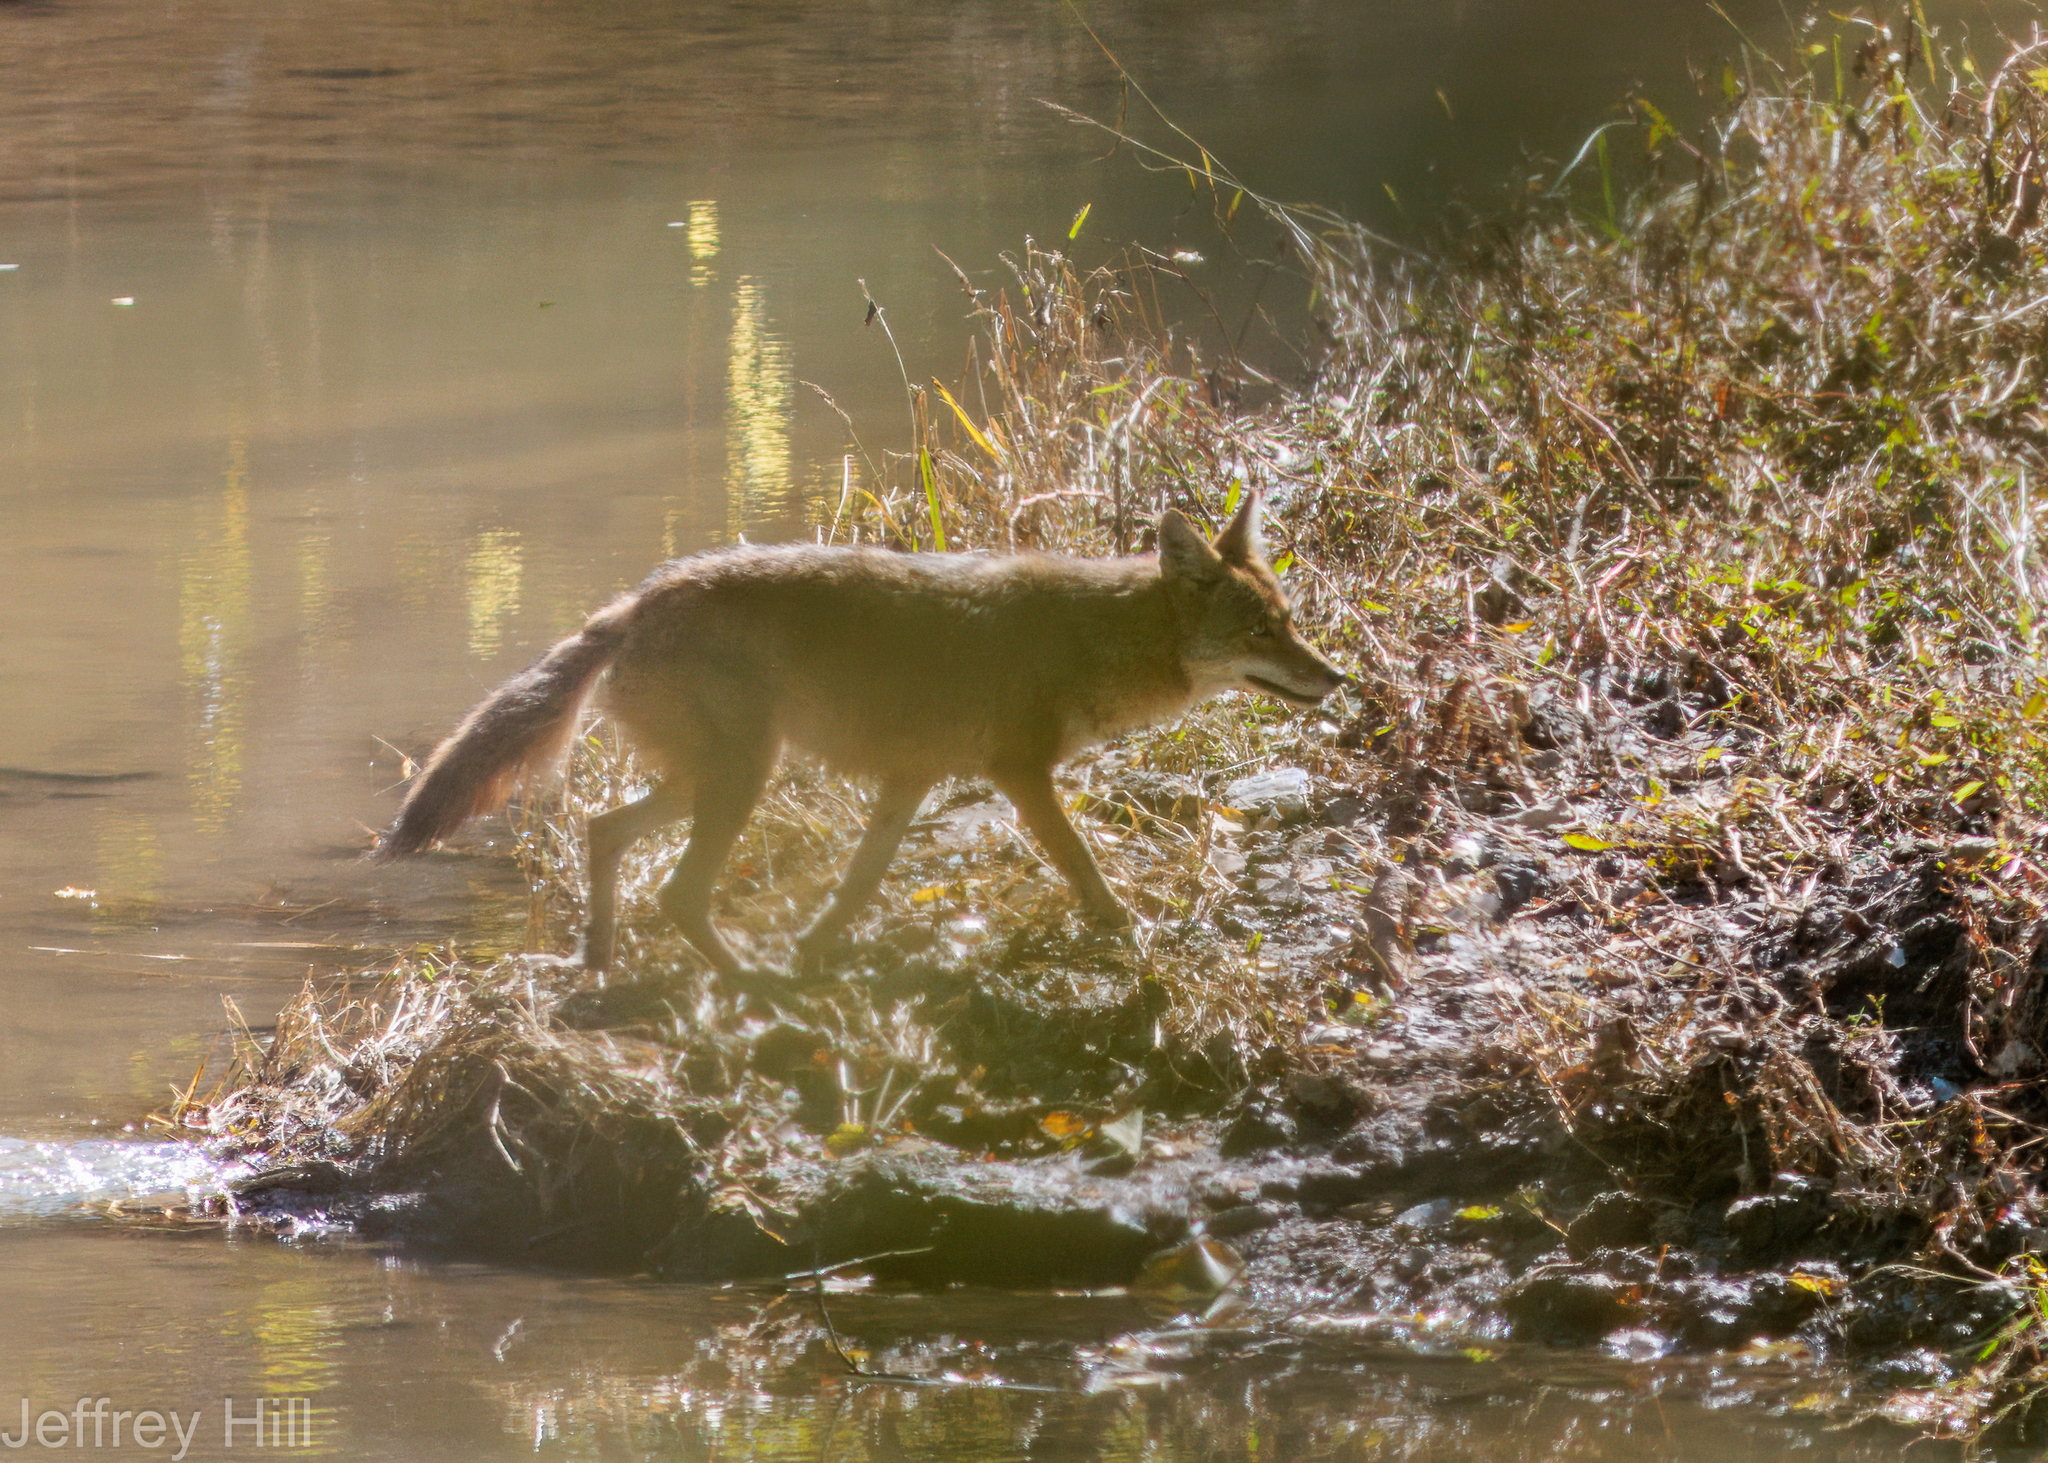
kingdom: Animalia
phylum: Chordata
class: Mammalia
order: Carnivora
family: Canidae
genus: Canis
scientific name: Canis latrans
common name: Coyote
